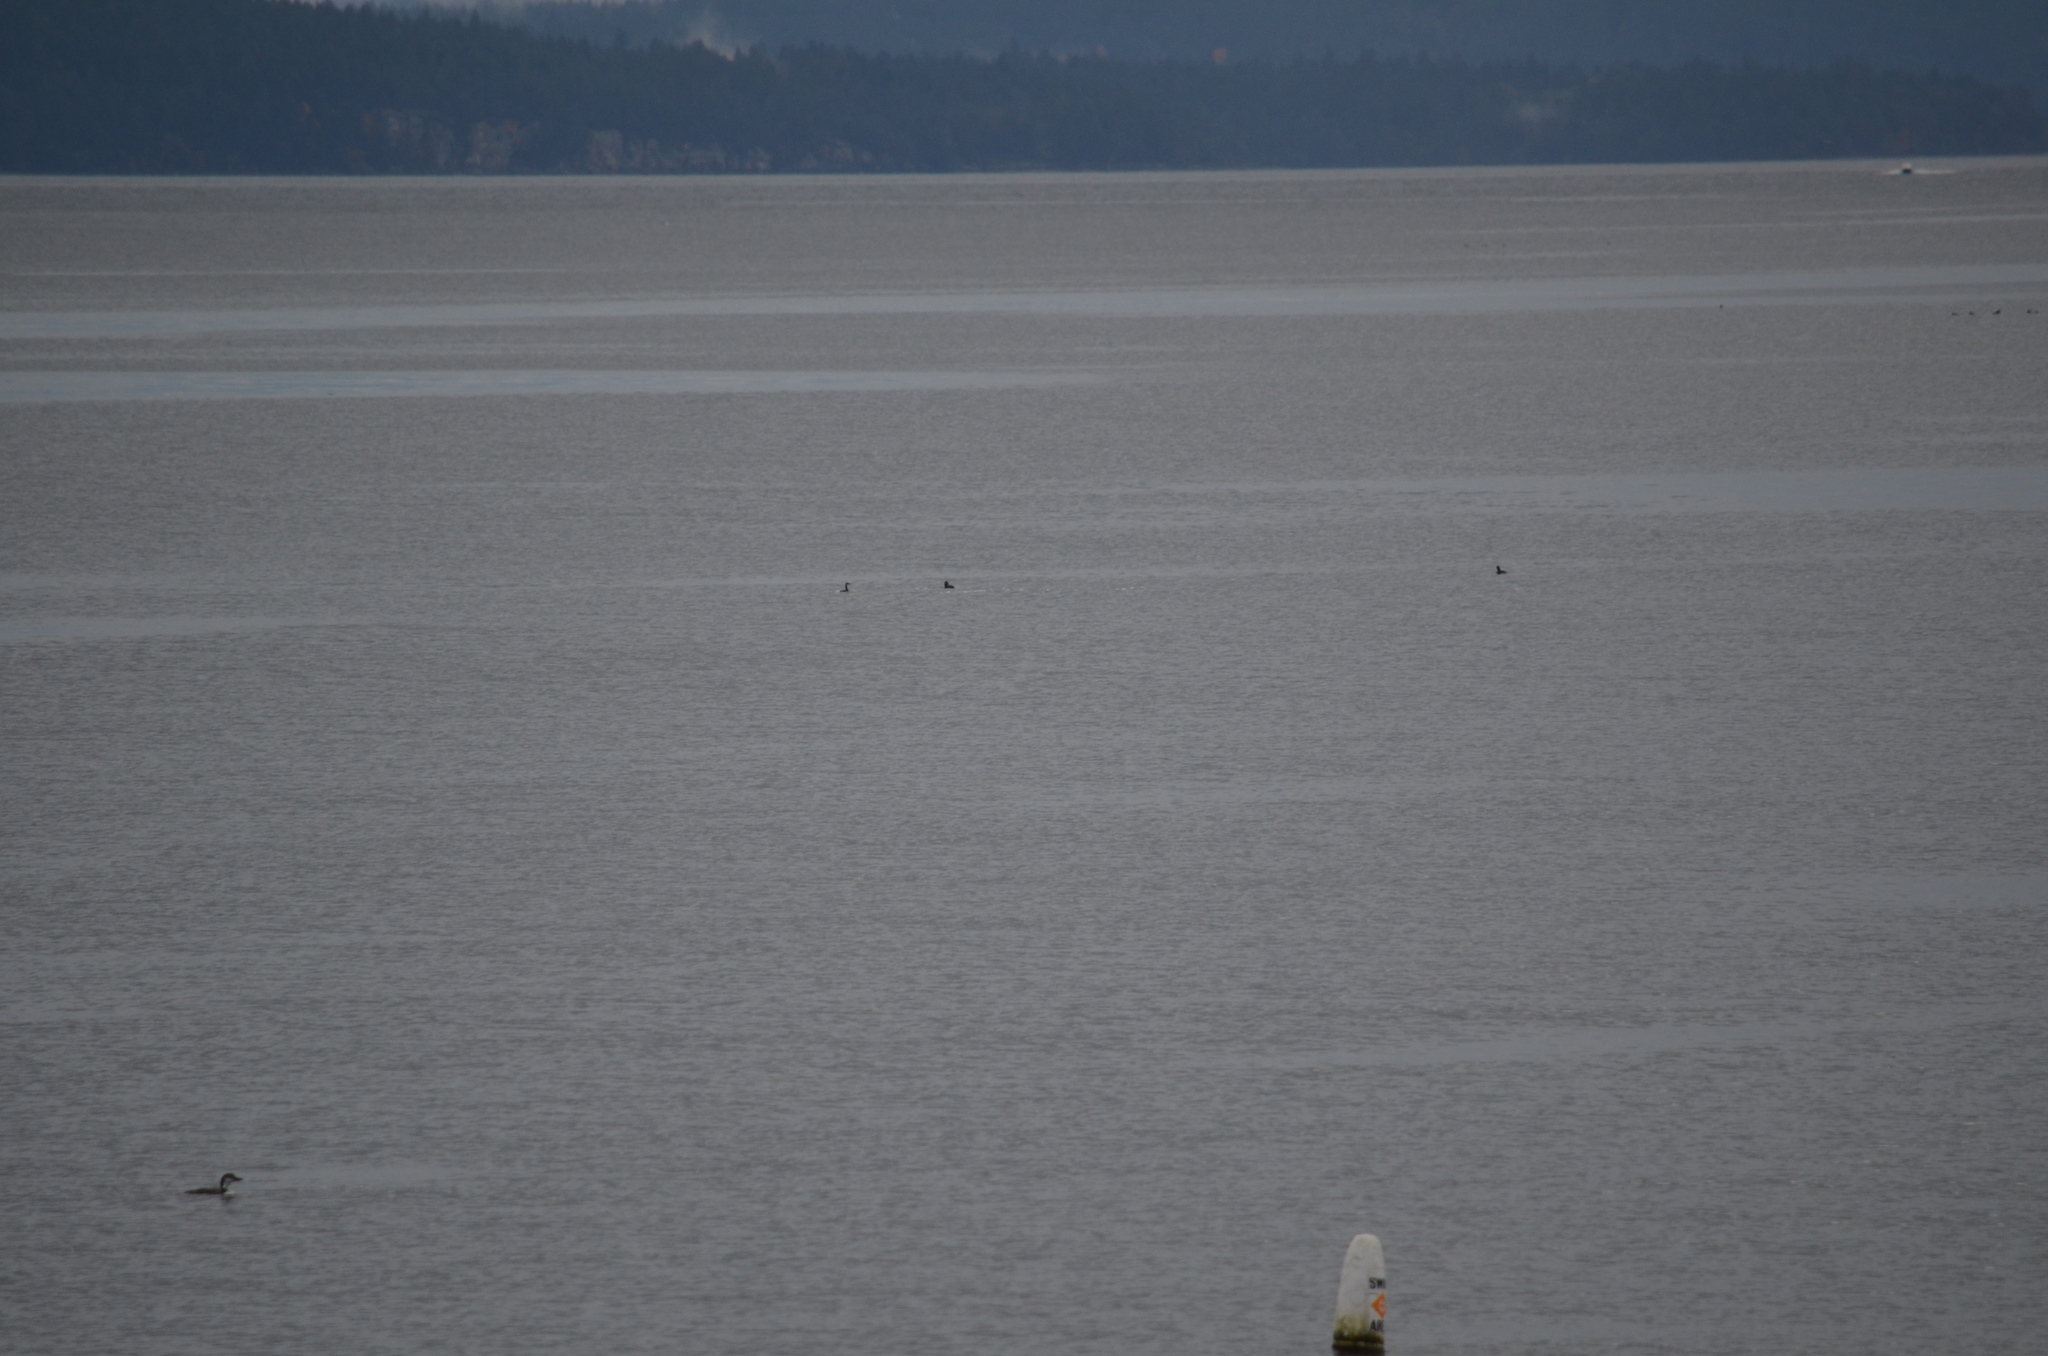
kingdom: Animalia
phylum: Chordata
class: Aves
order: Gaviiformes
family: Gaviidae
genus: Gavia
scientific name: Gavia immer
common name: Common loon
